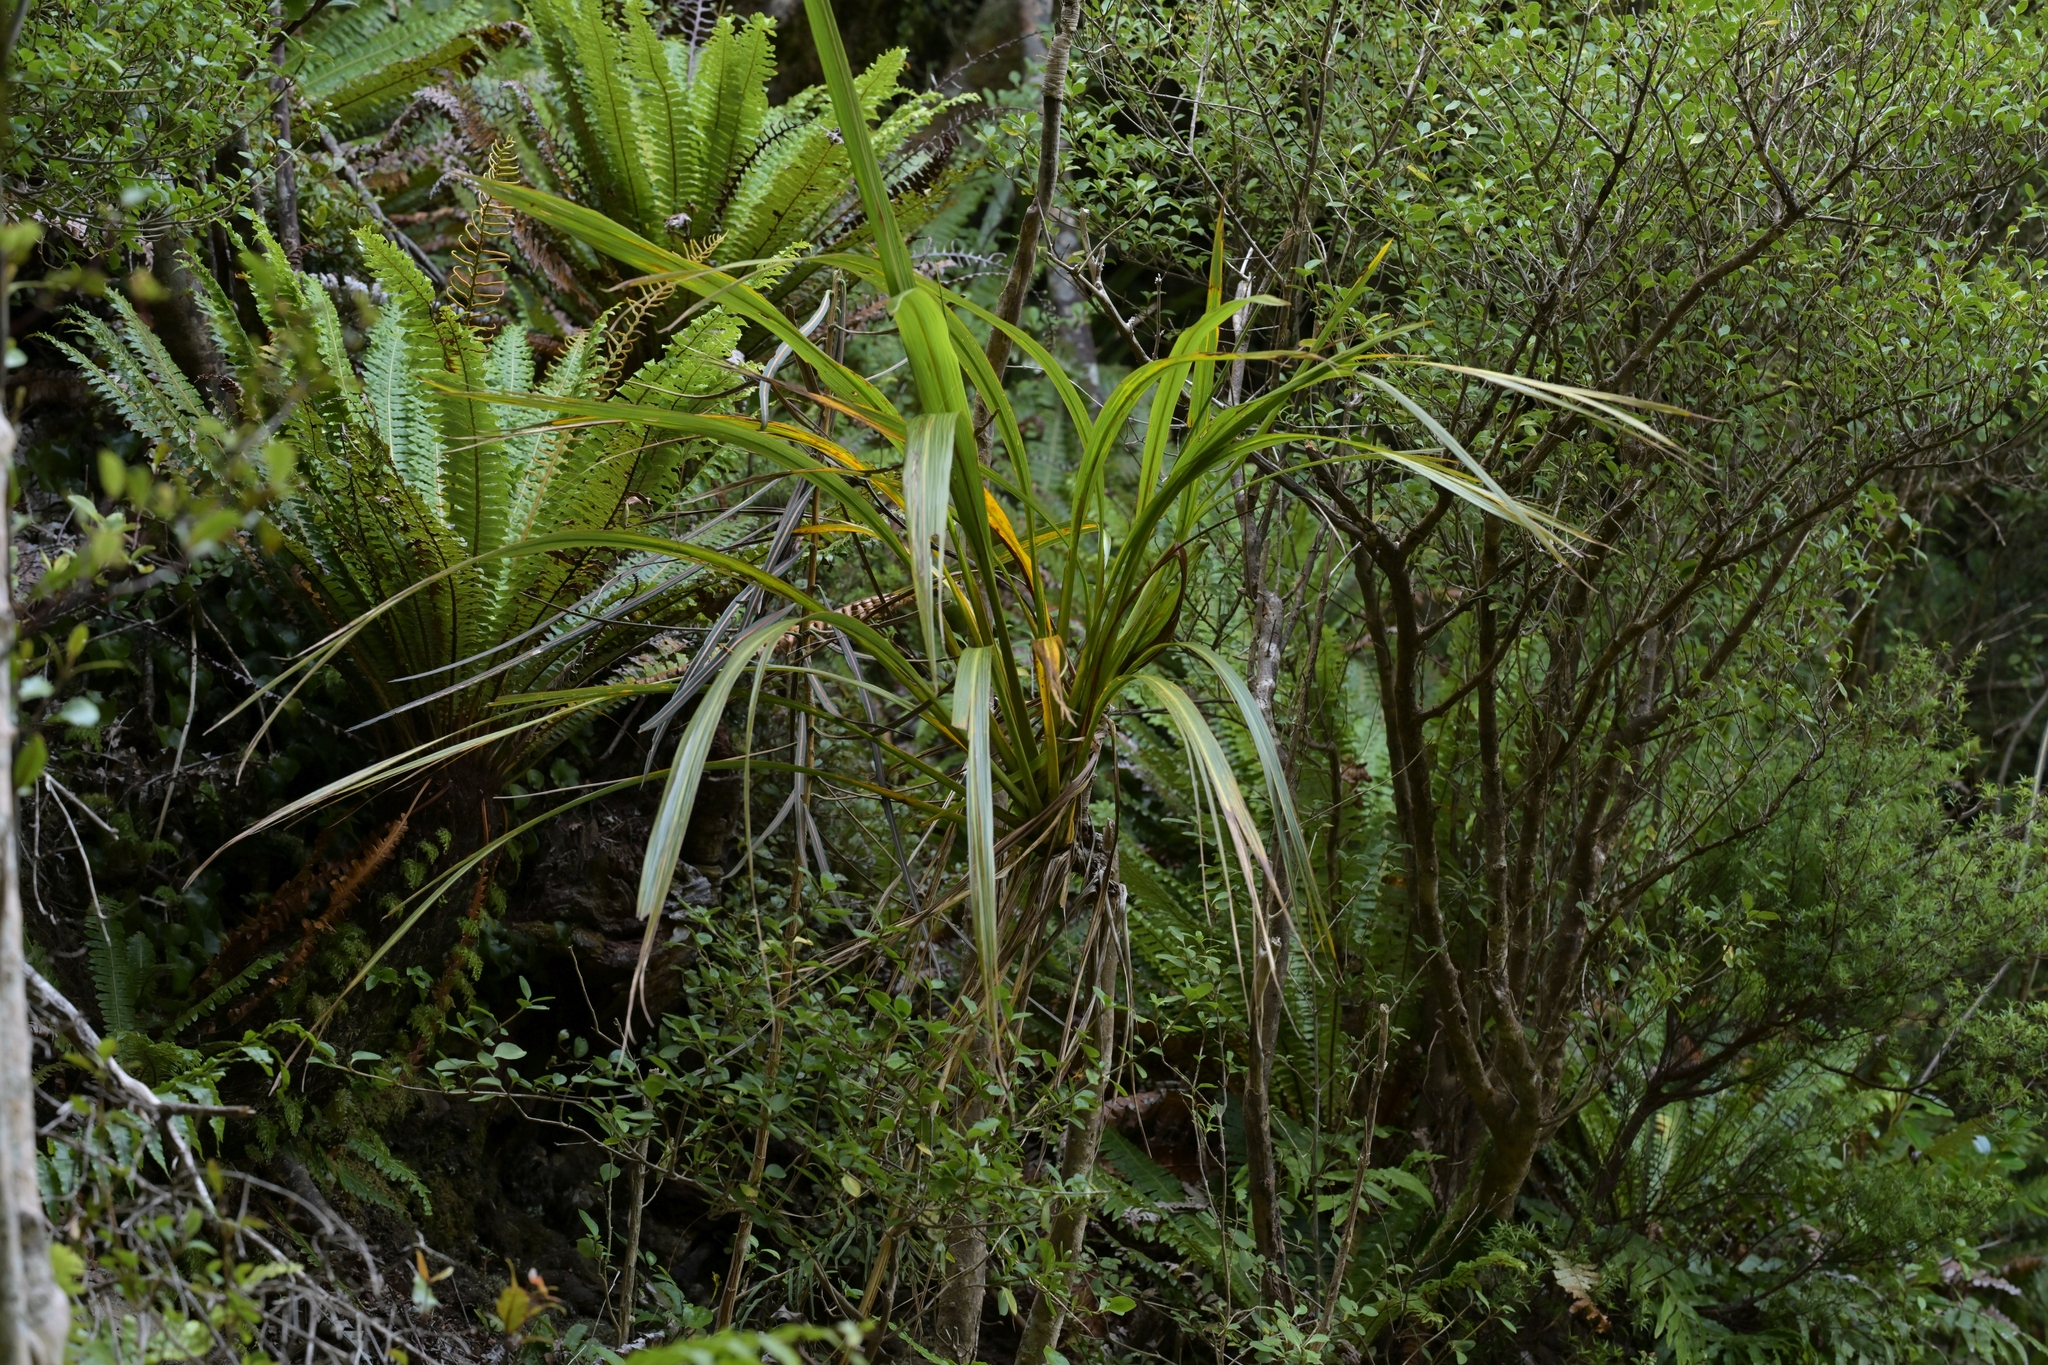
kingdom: Plantae
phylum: Tracheophyta
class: Liliopsida
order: Asparagales
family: Asparagaceae
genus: Cordyline
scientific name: Cordyline banksii
